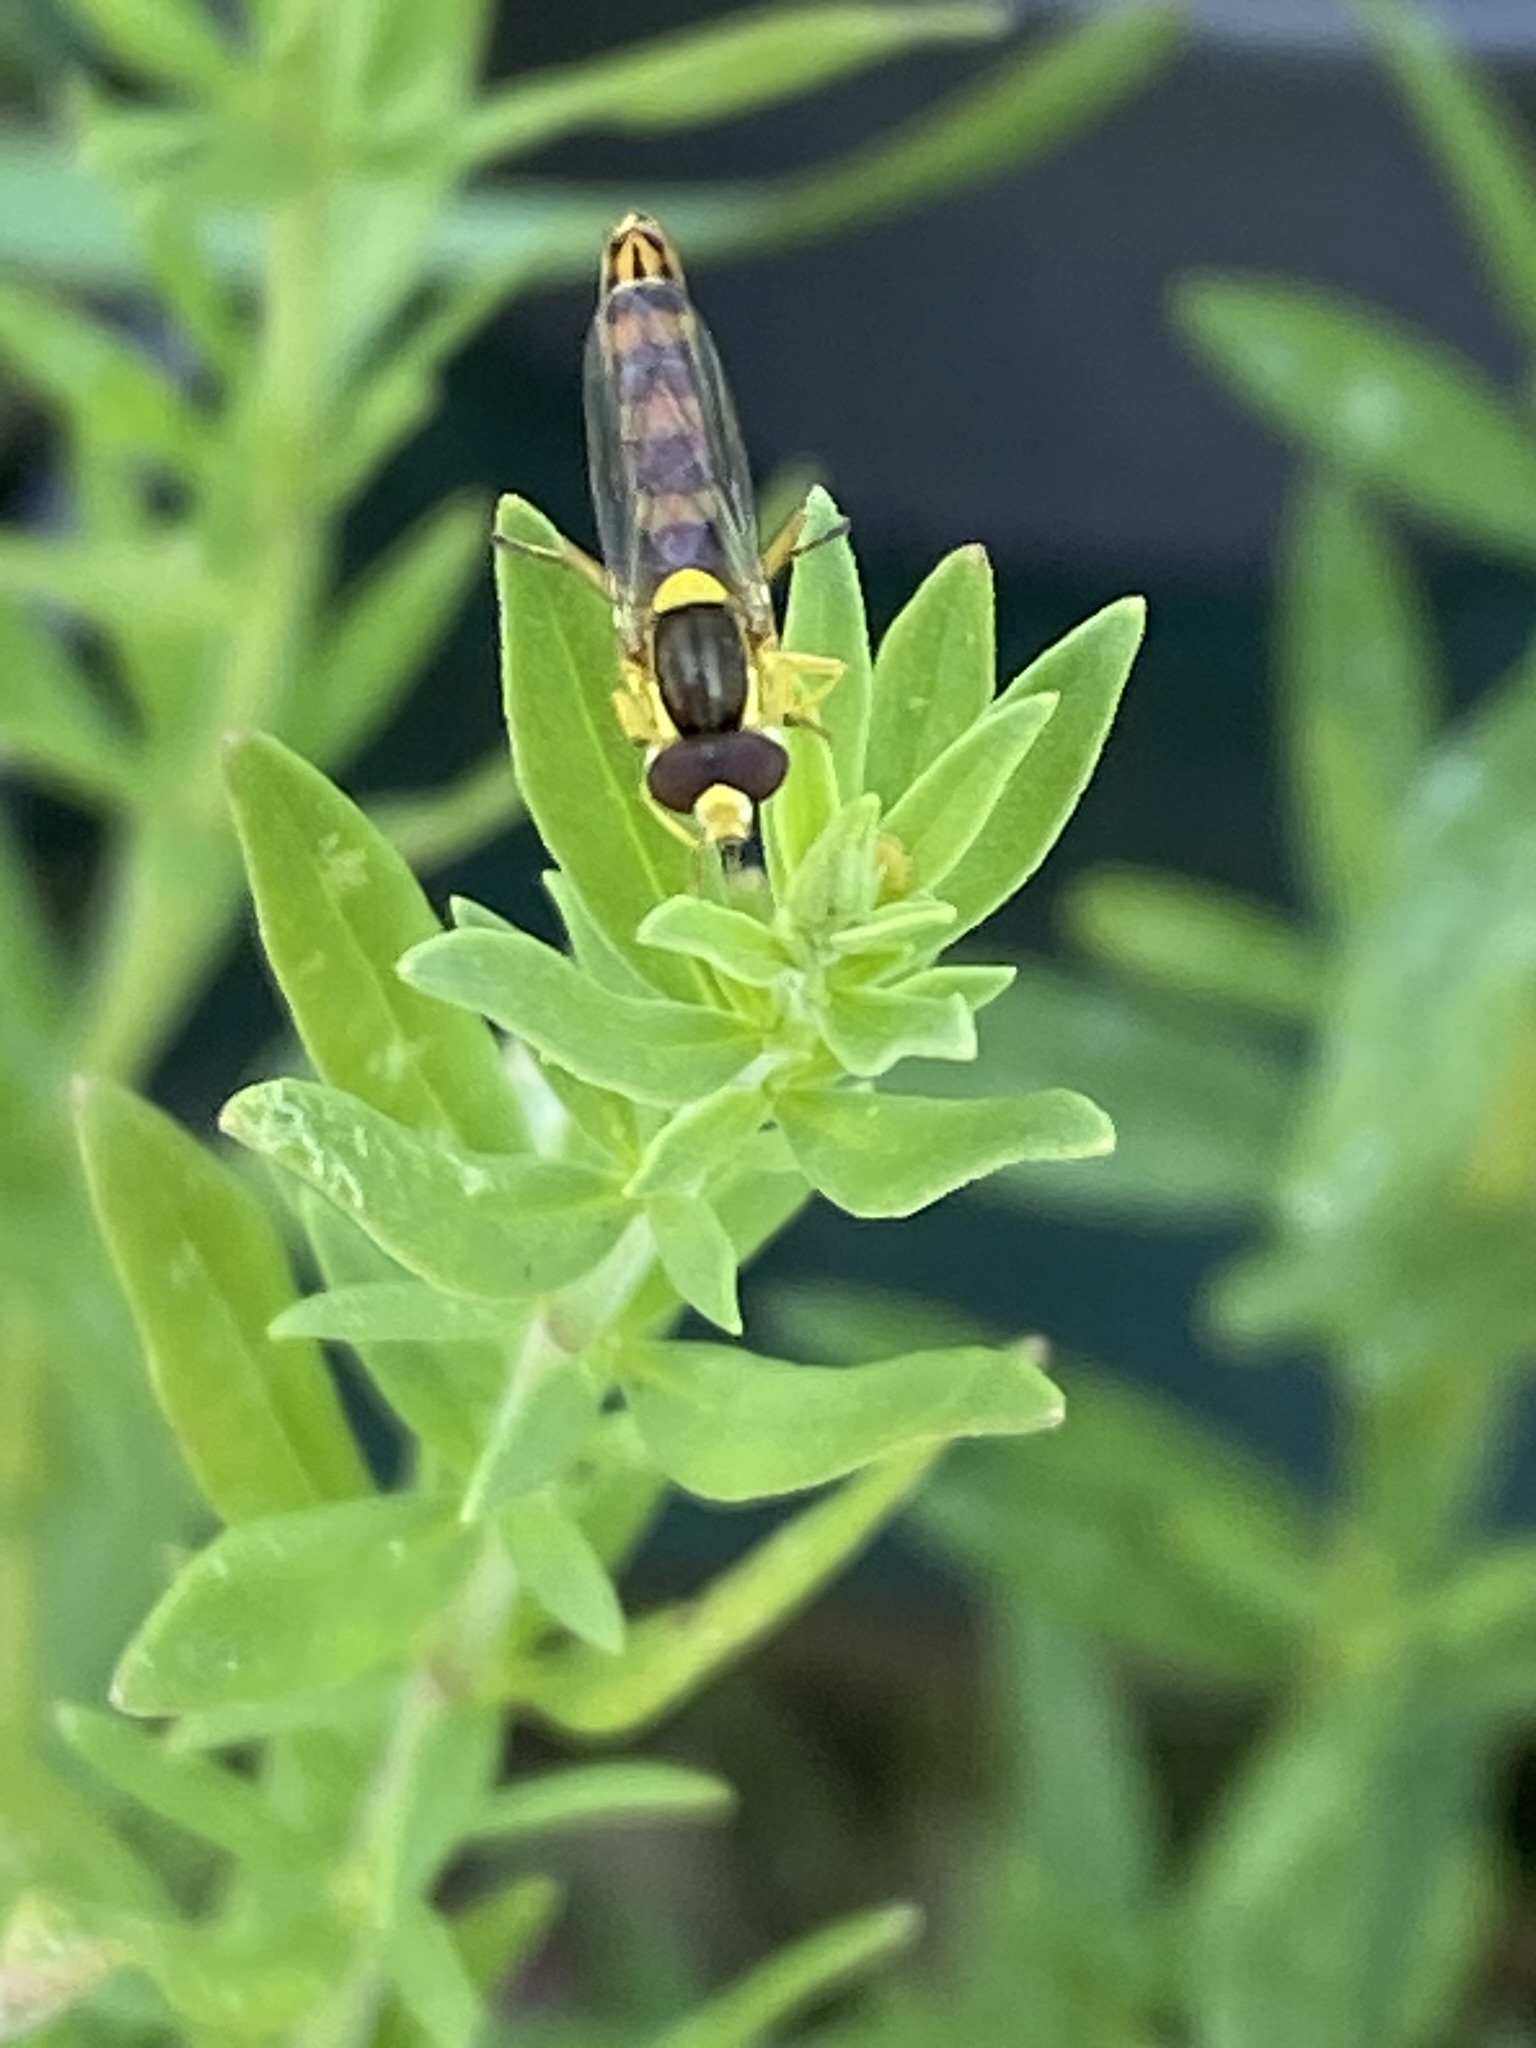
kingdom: Animalia
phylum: Arthropoda
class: Insecta
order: Diptera
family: Syrphidae
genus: Sphaerophoria
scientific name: Sphaerophoria scripta
